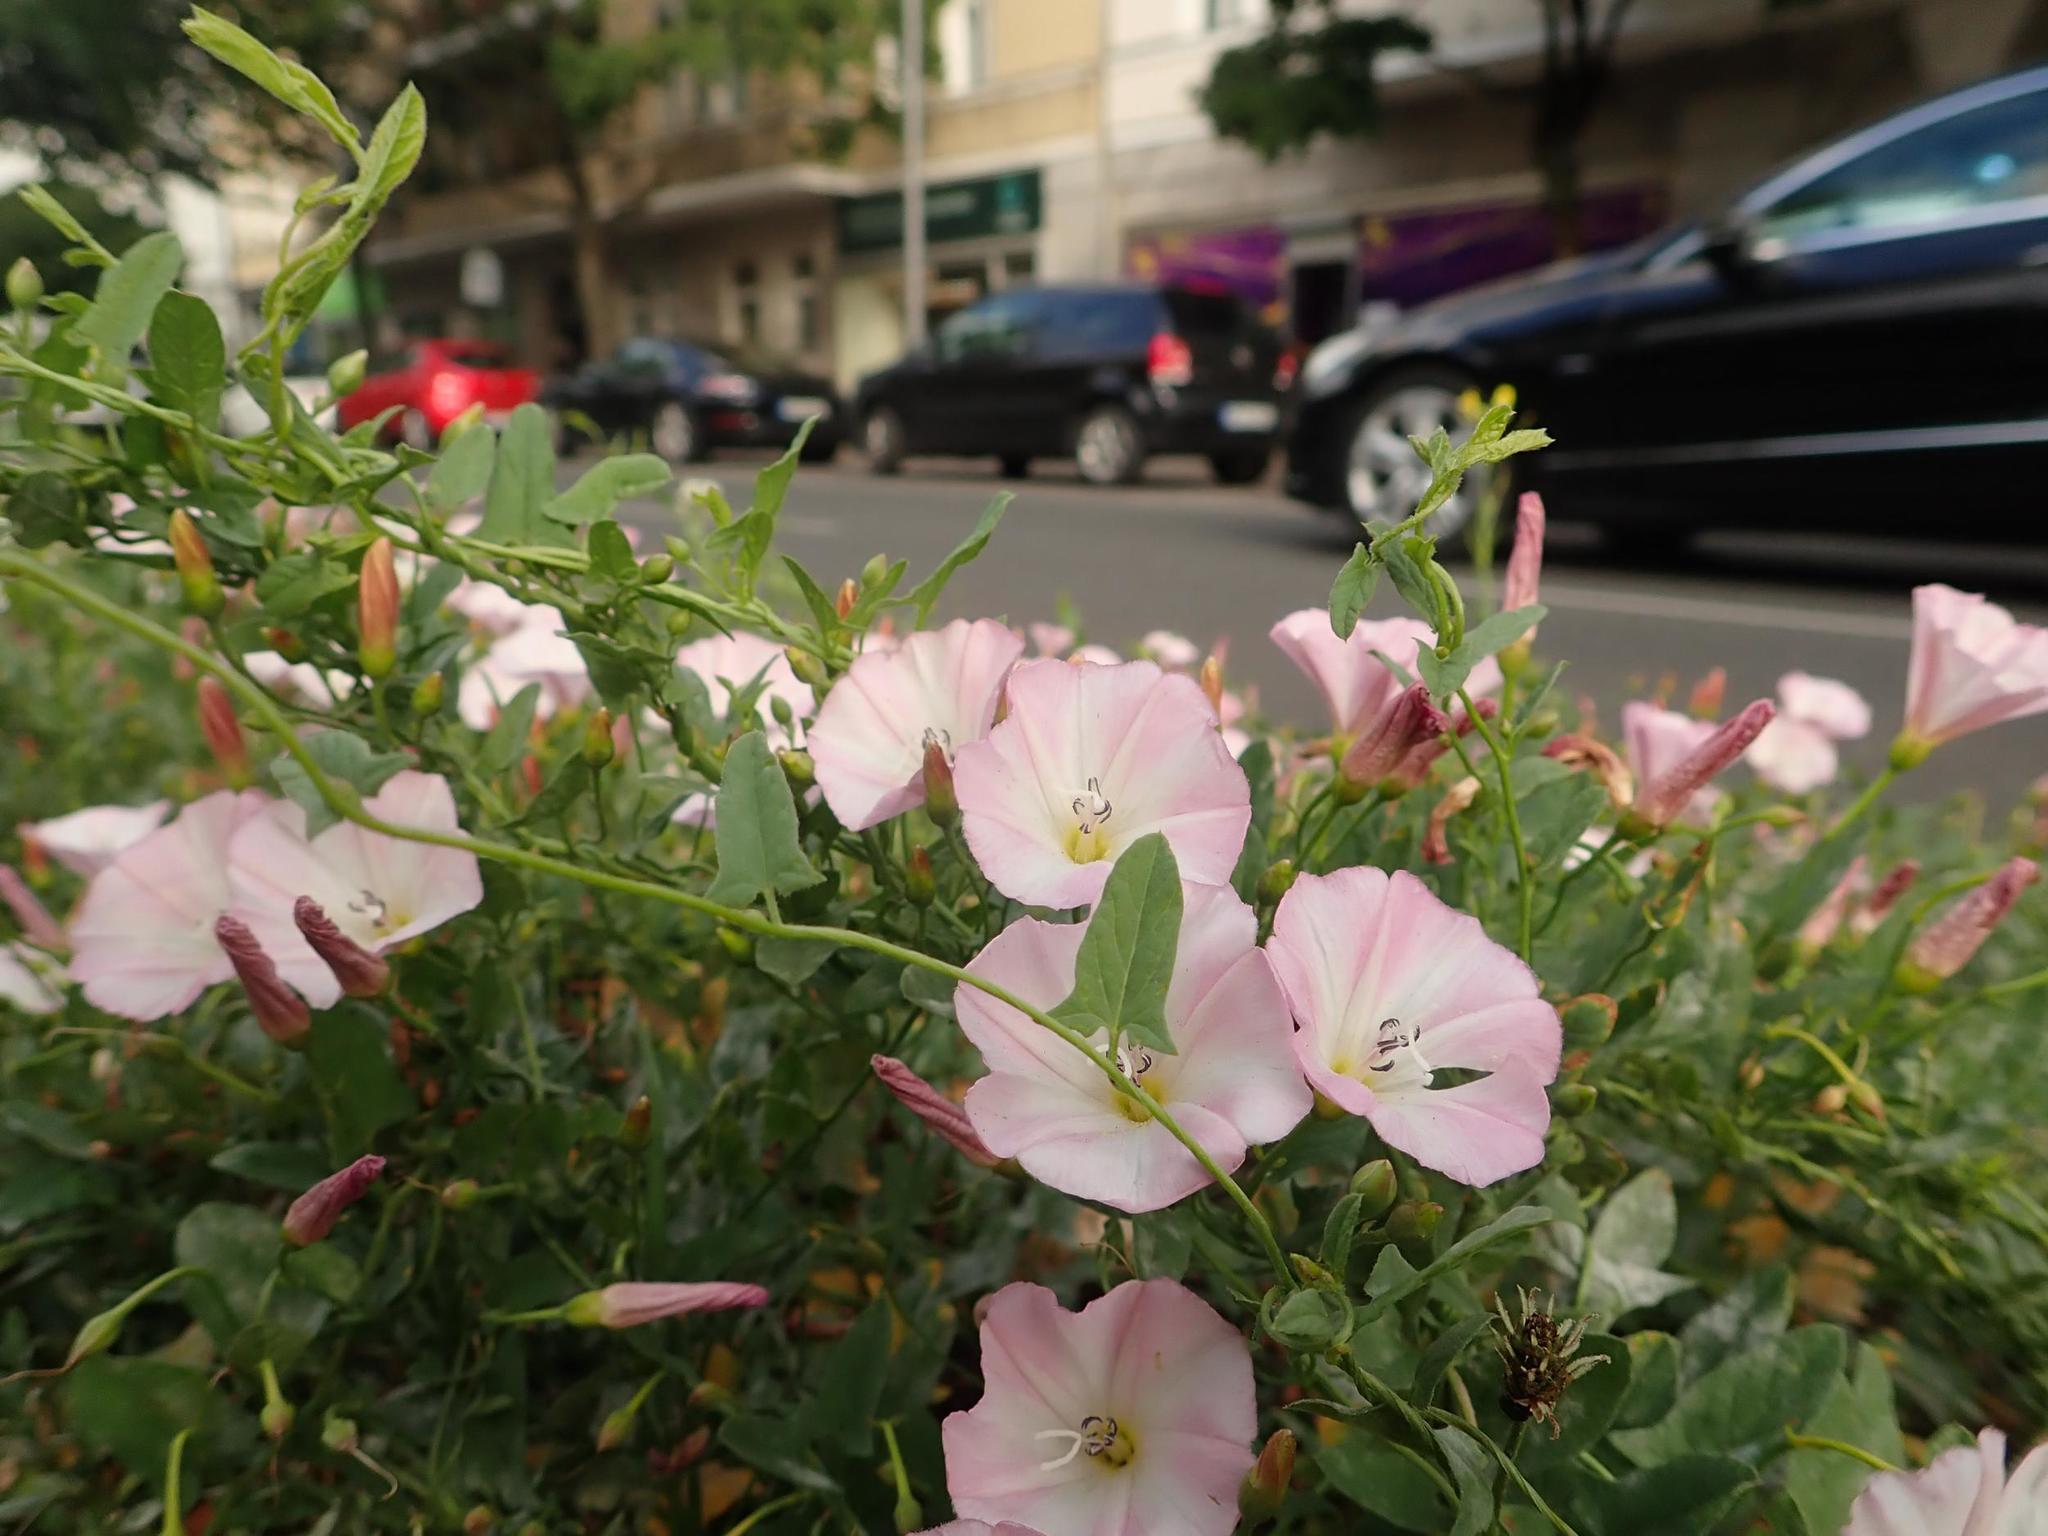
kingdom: Plantae
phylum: Tracheophyta
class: Magnoliopsida
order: Solanales
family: Convolvulaceae
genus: Convolvulus
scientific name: Convolvulus arvensis
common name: Field bindweed
